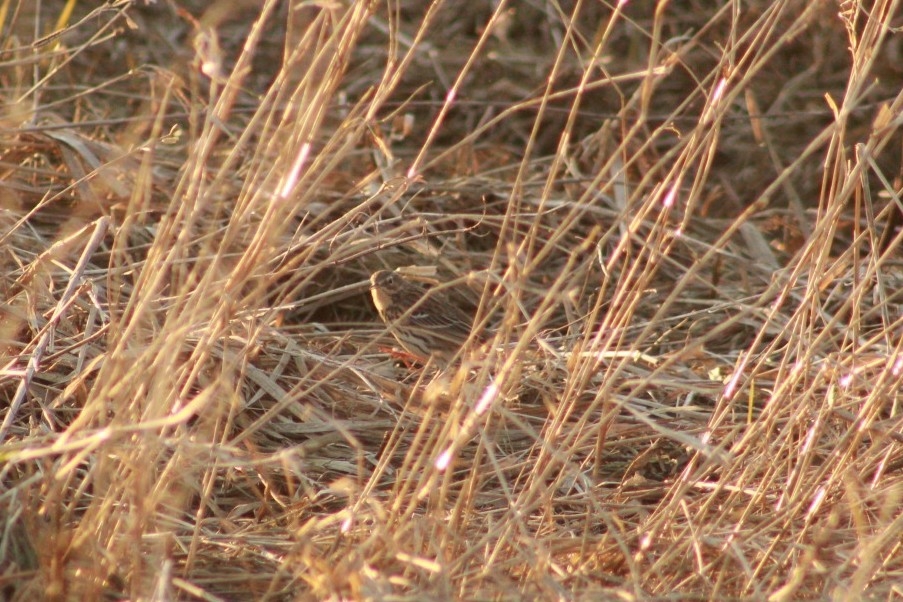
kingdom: Animalia
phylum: Chordata
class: Aves
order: Passeriformes
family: Motacillidae
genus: Anthus
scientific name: Anthus pratensis
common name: Meadow pipit
